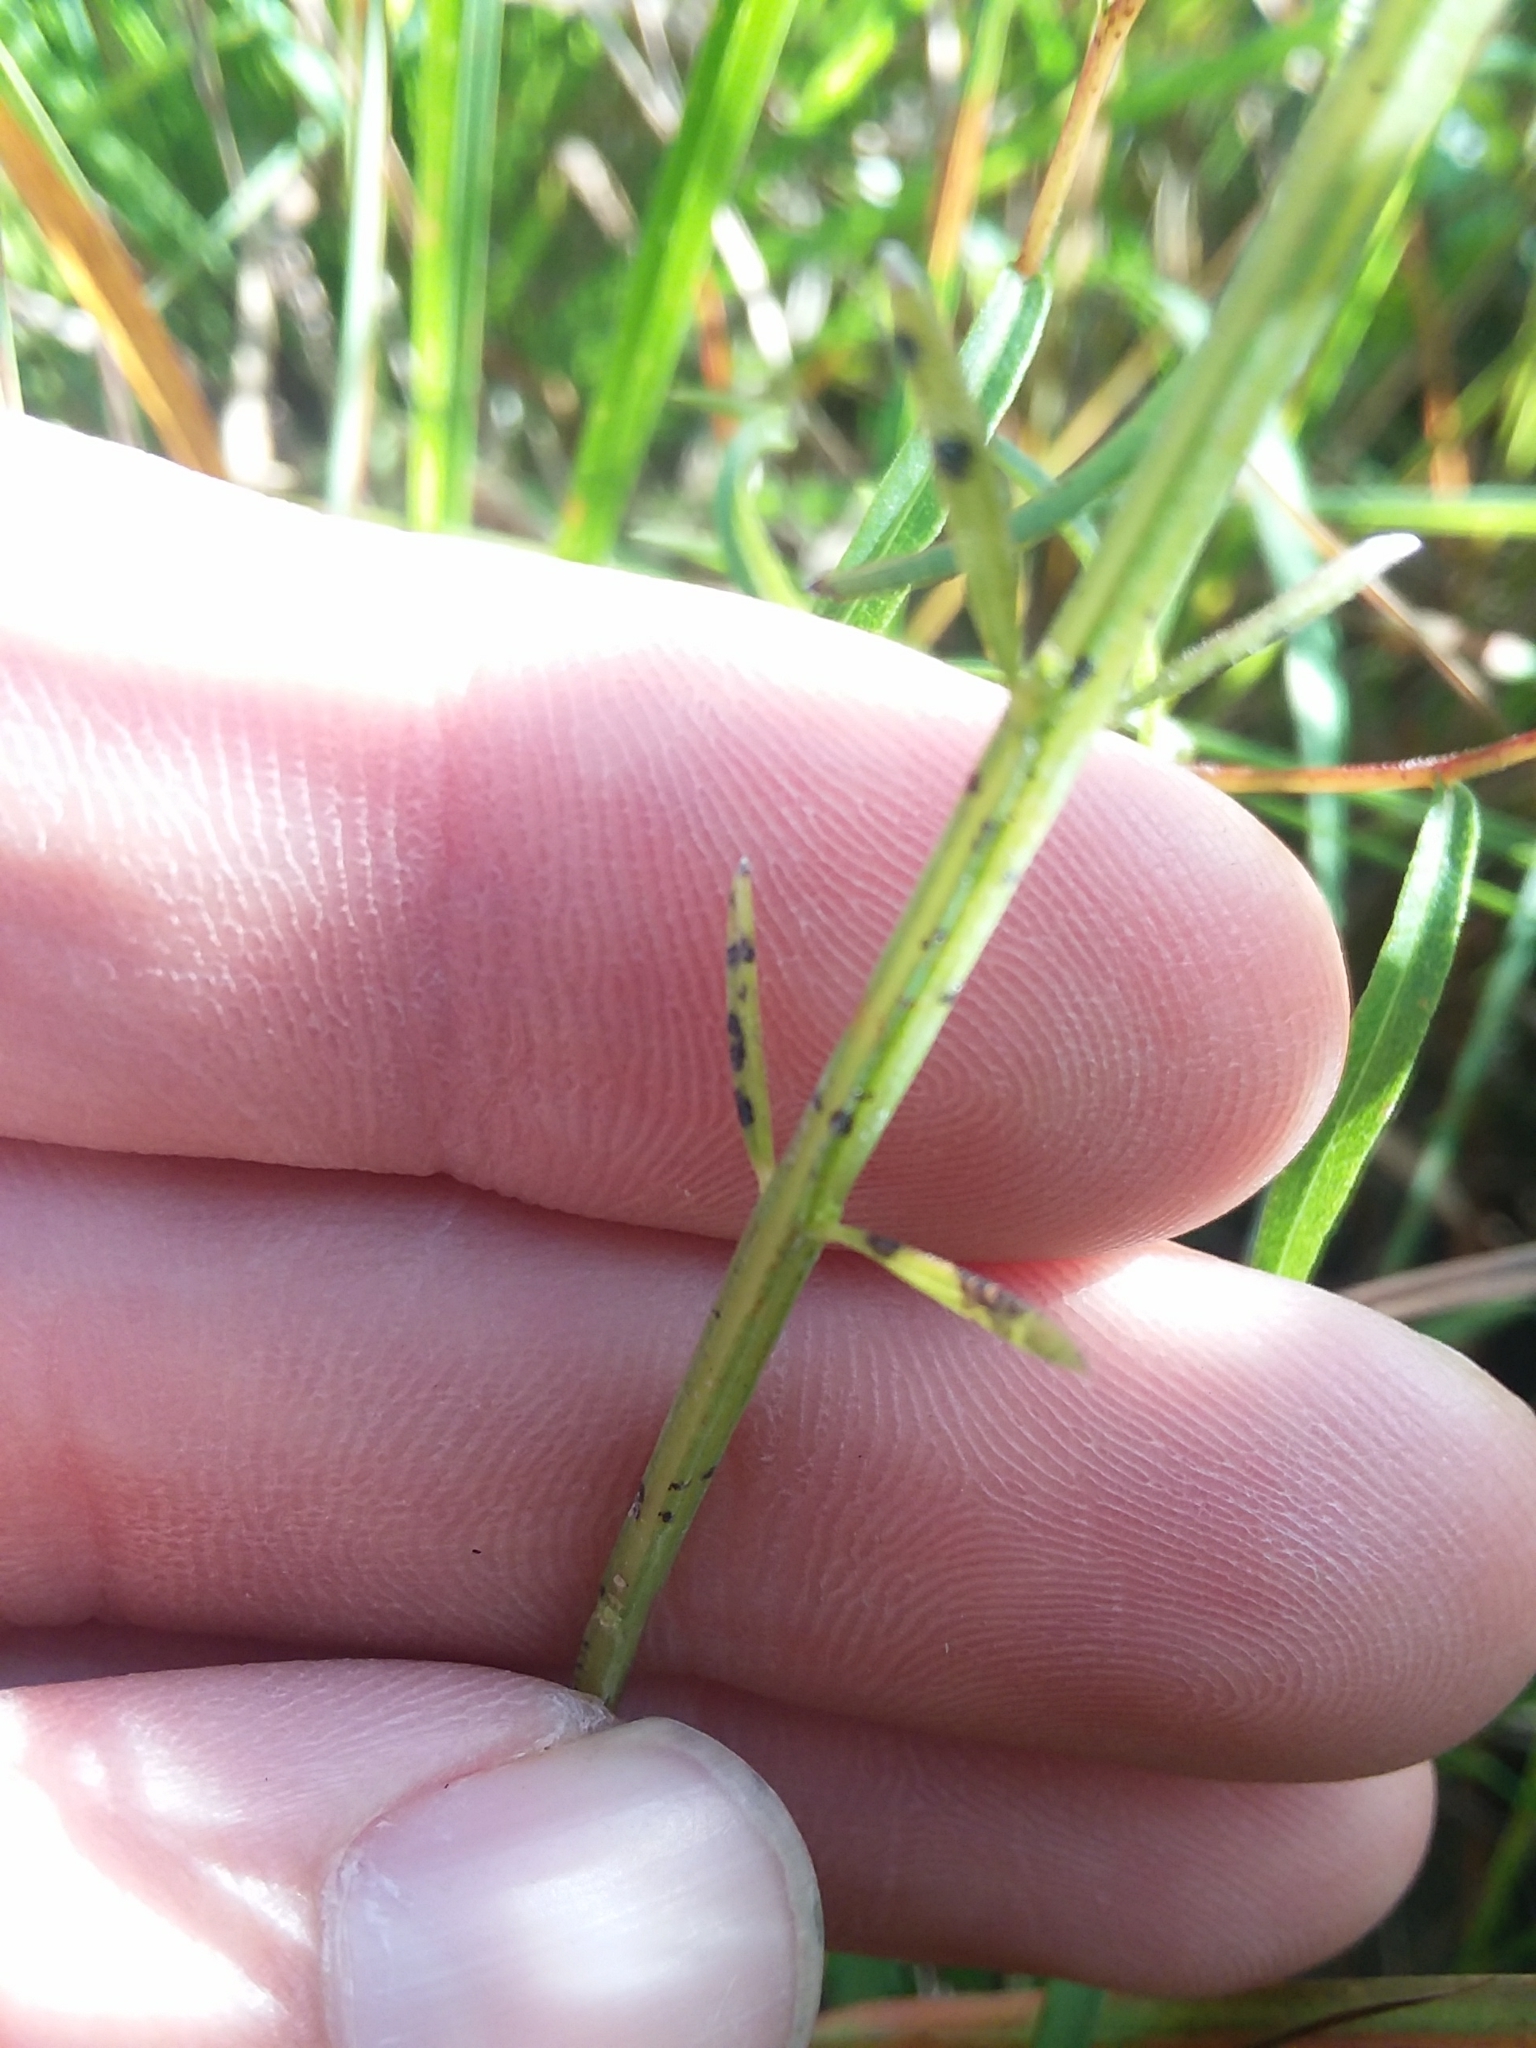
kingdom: Plantae
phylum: Tracheophyta
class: Magnoliopsida
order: Lamiales
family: Orobanchaceae
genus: Agalinis
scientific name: Agalinis obtusifolia
